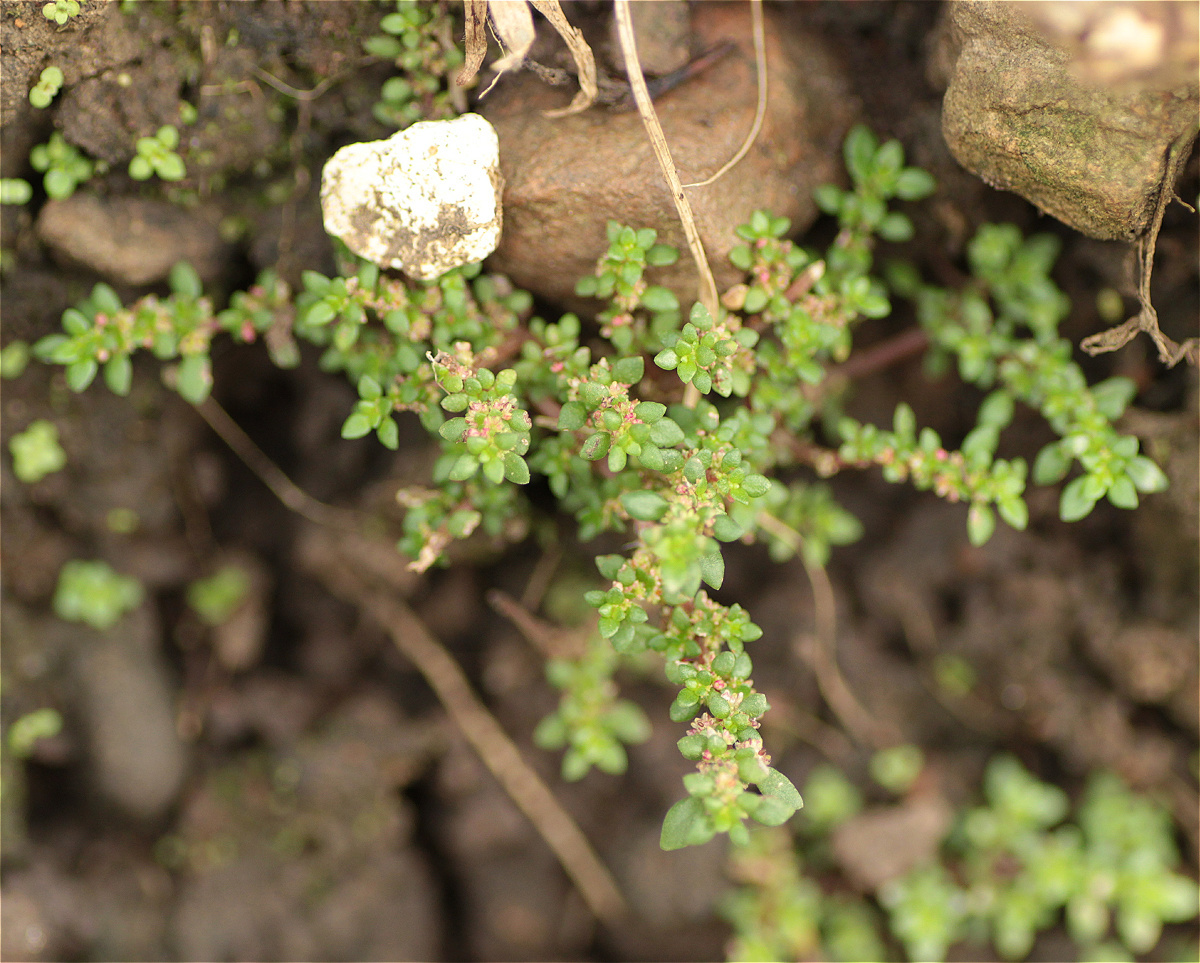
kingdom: Plantae
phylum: Tracheophyta
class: Magnoliopsida
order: Rosales
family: Urticaceae
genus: Pilea
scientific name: Pilea microphylla
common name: Artillery-plant
